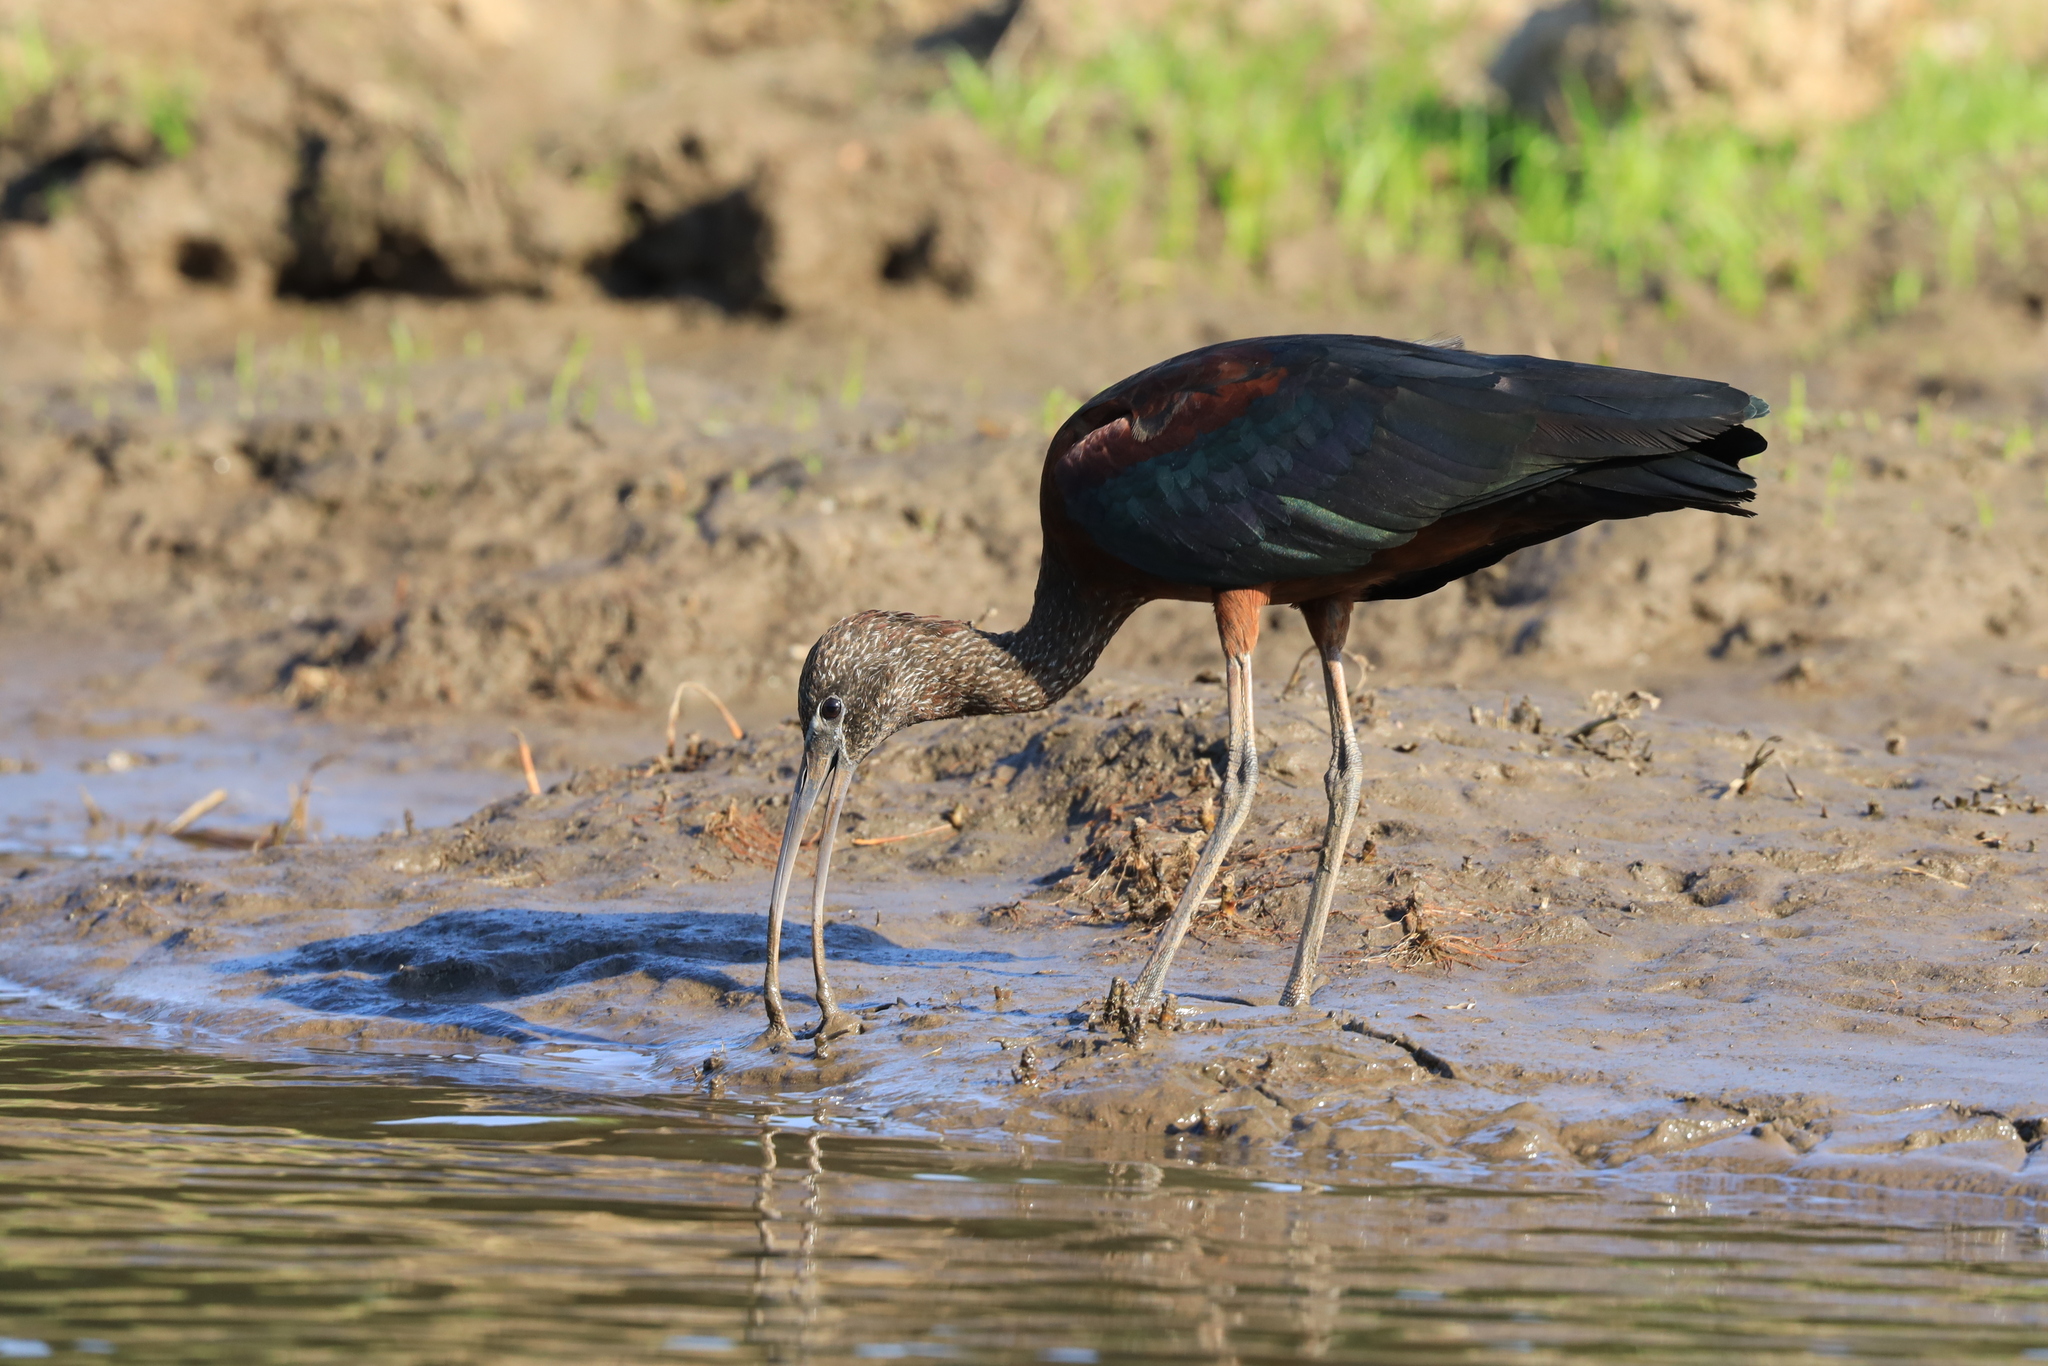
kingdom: Animalia
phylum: Chordata
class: Aves
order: Pelecaniformes
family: Threskiornithidae
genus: Plegadis
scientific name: Plegadis falcinellus
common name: Glossy ibis
